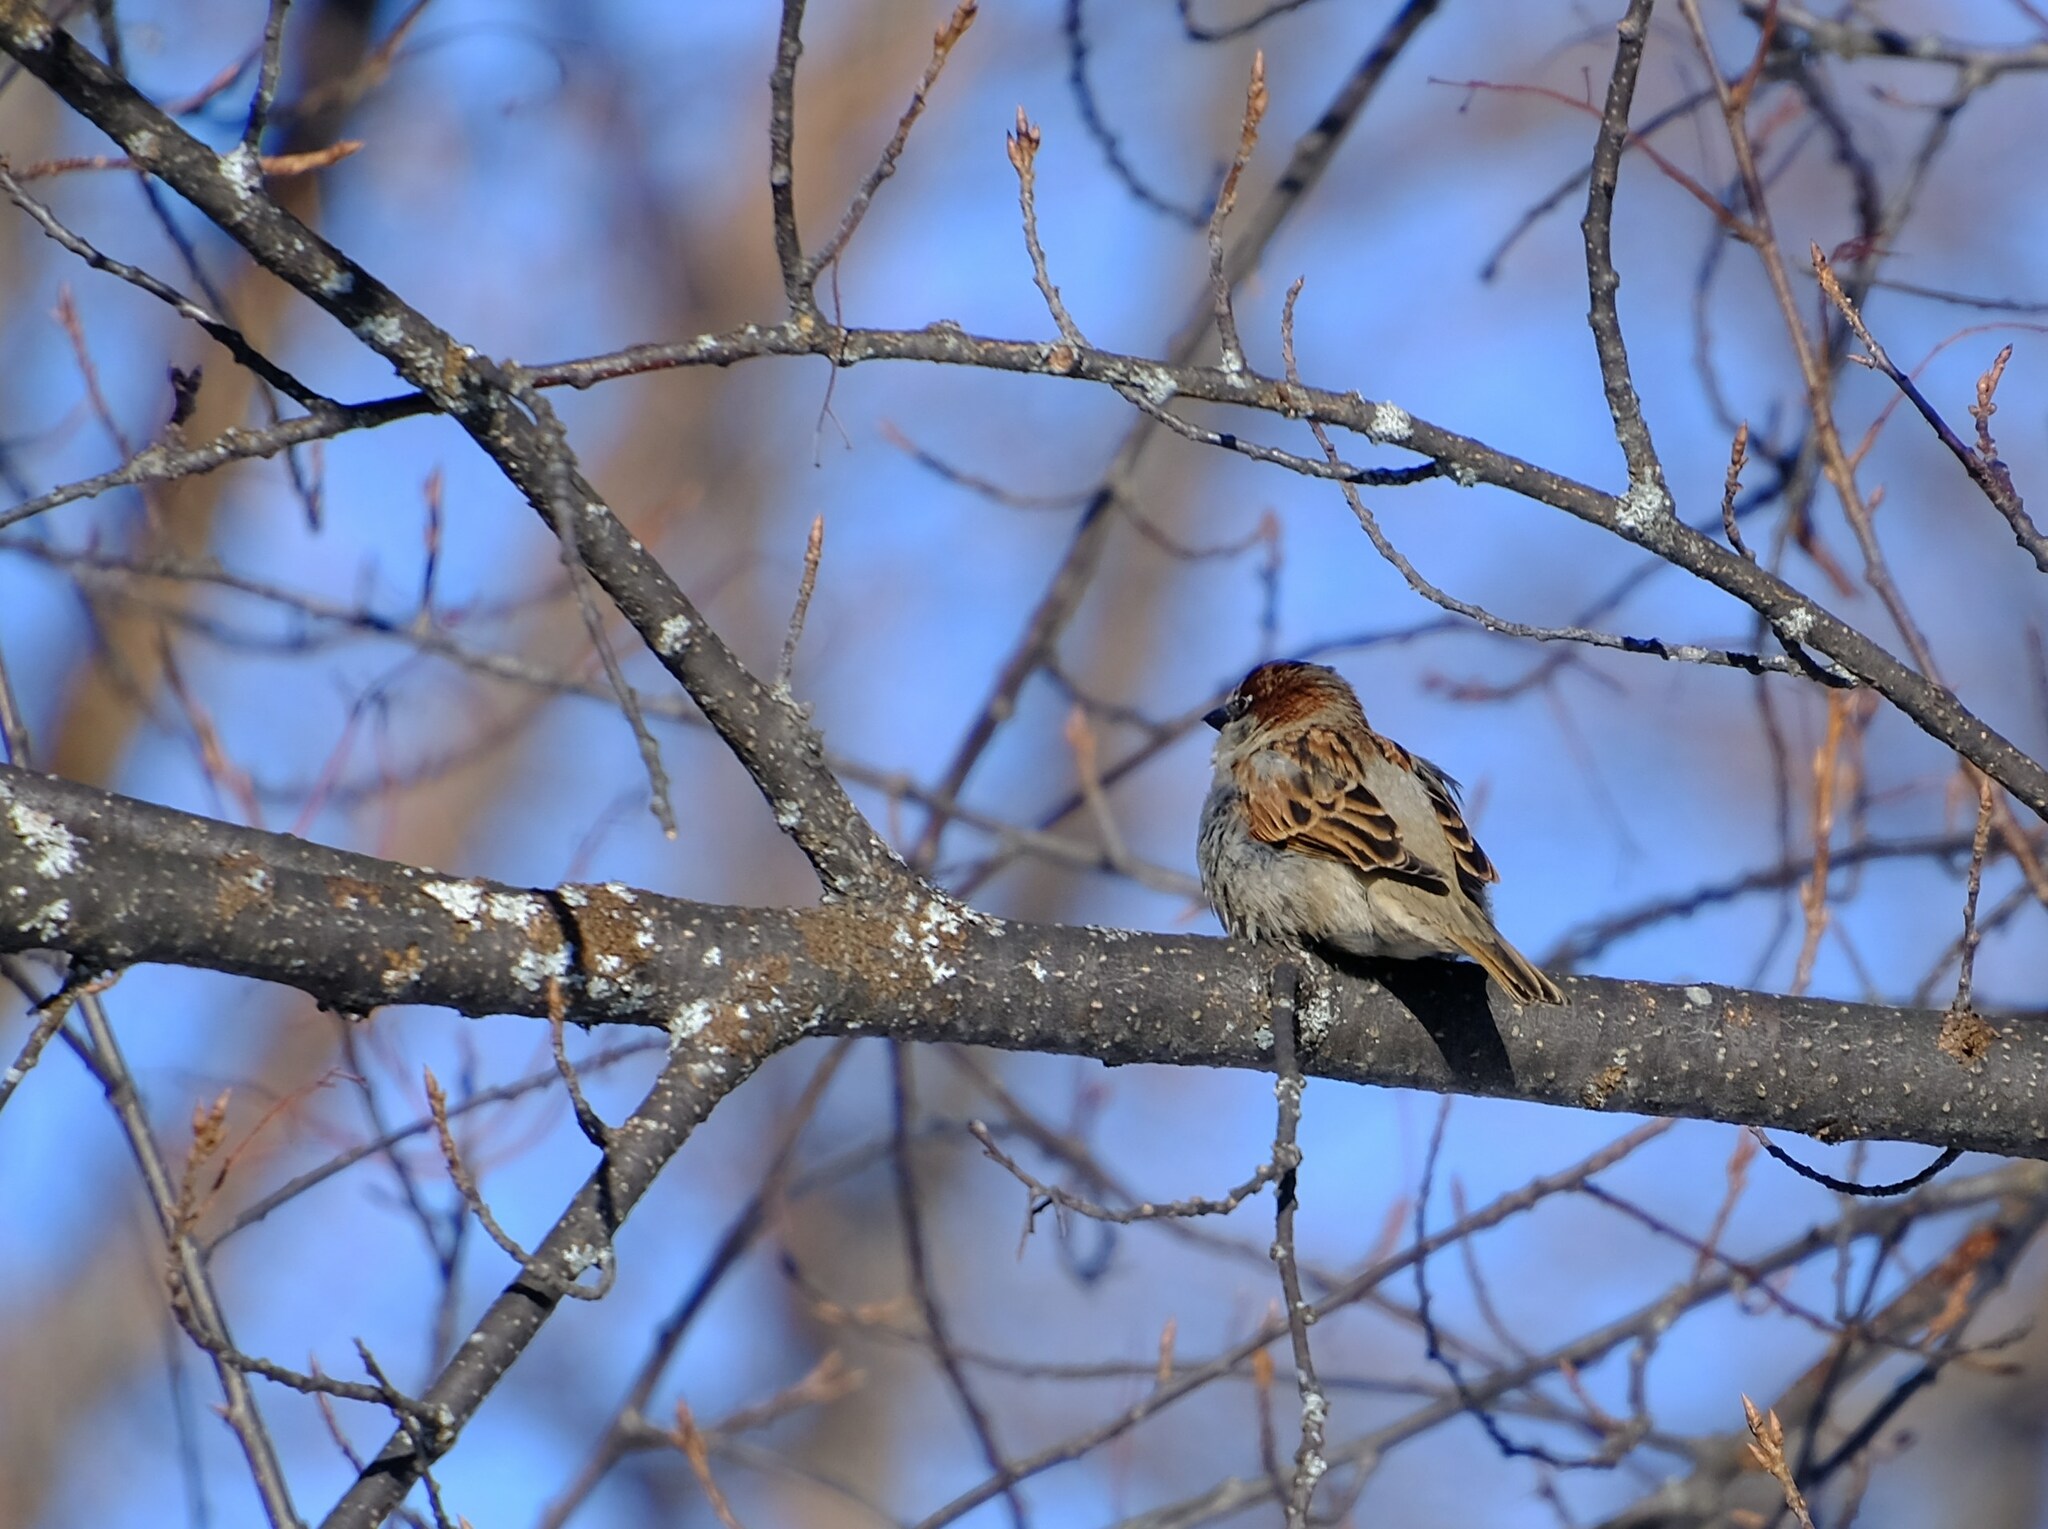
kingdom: Animalia
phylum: Chordata
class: Aves
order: Passeriformes
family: Passeridae
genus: Passer
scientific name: Passer domesticus
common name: House sparrow
